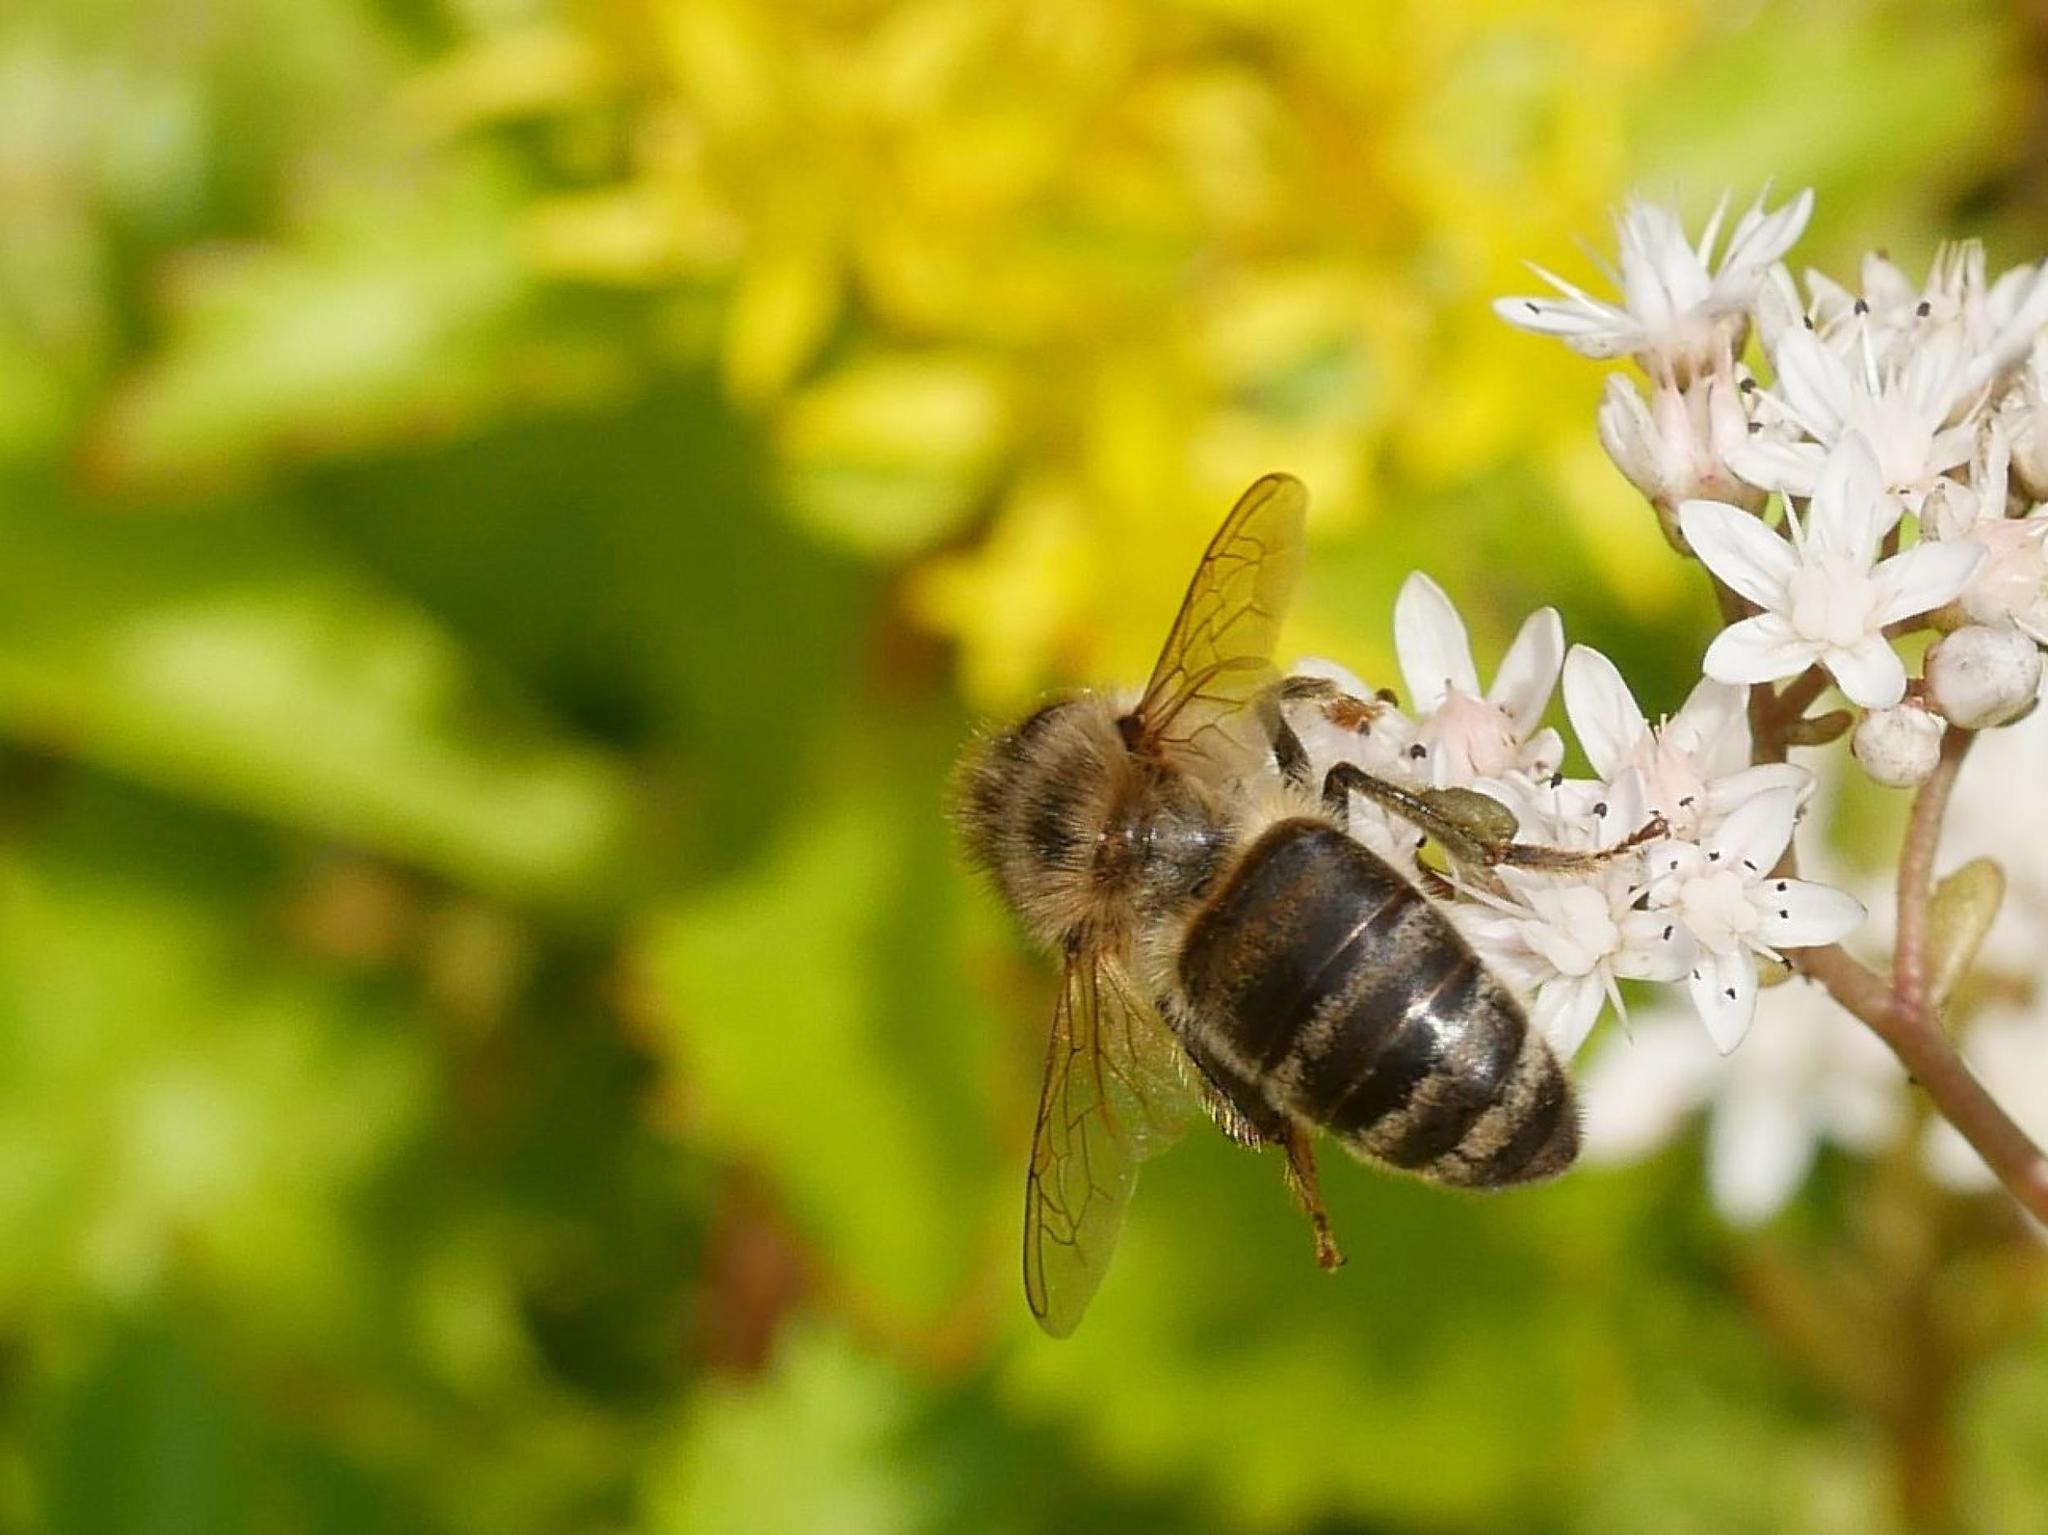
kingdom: Animalia
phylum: Arthropoda
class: Insecta
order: Hymenoptera
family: Apidae
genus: Apis
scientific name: Apis mellifera
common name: Honey bee
